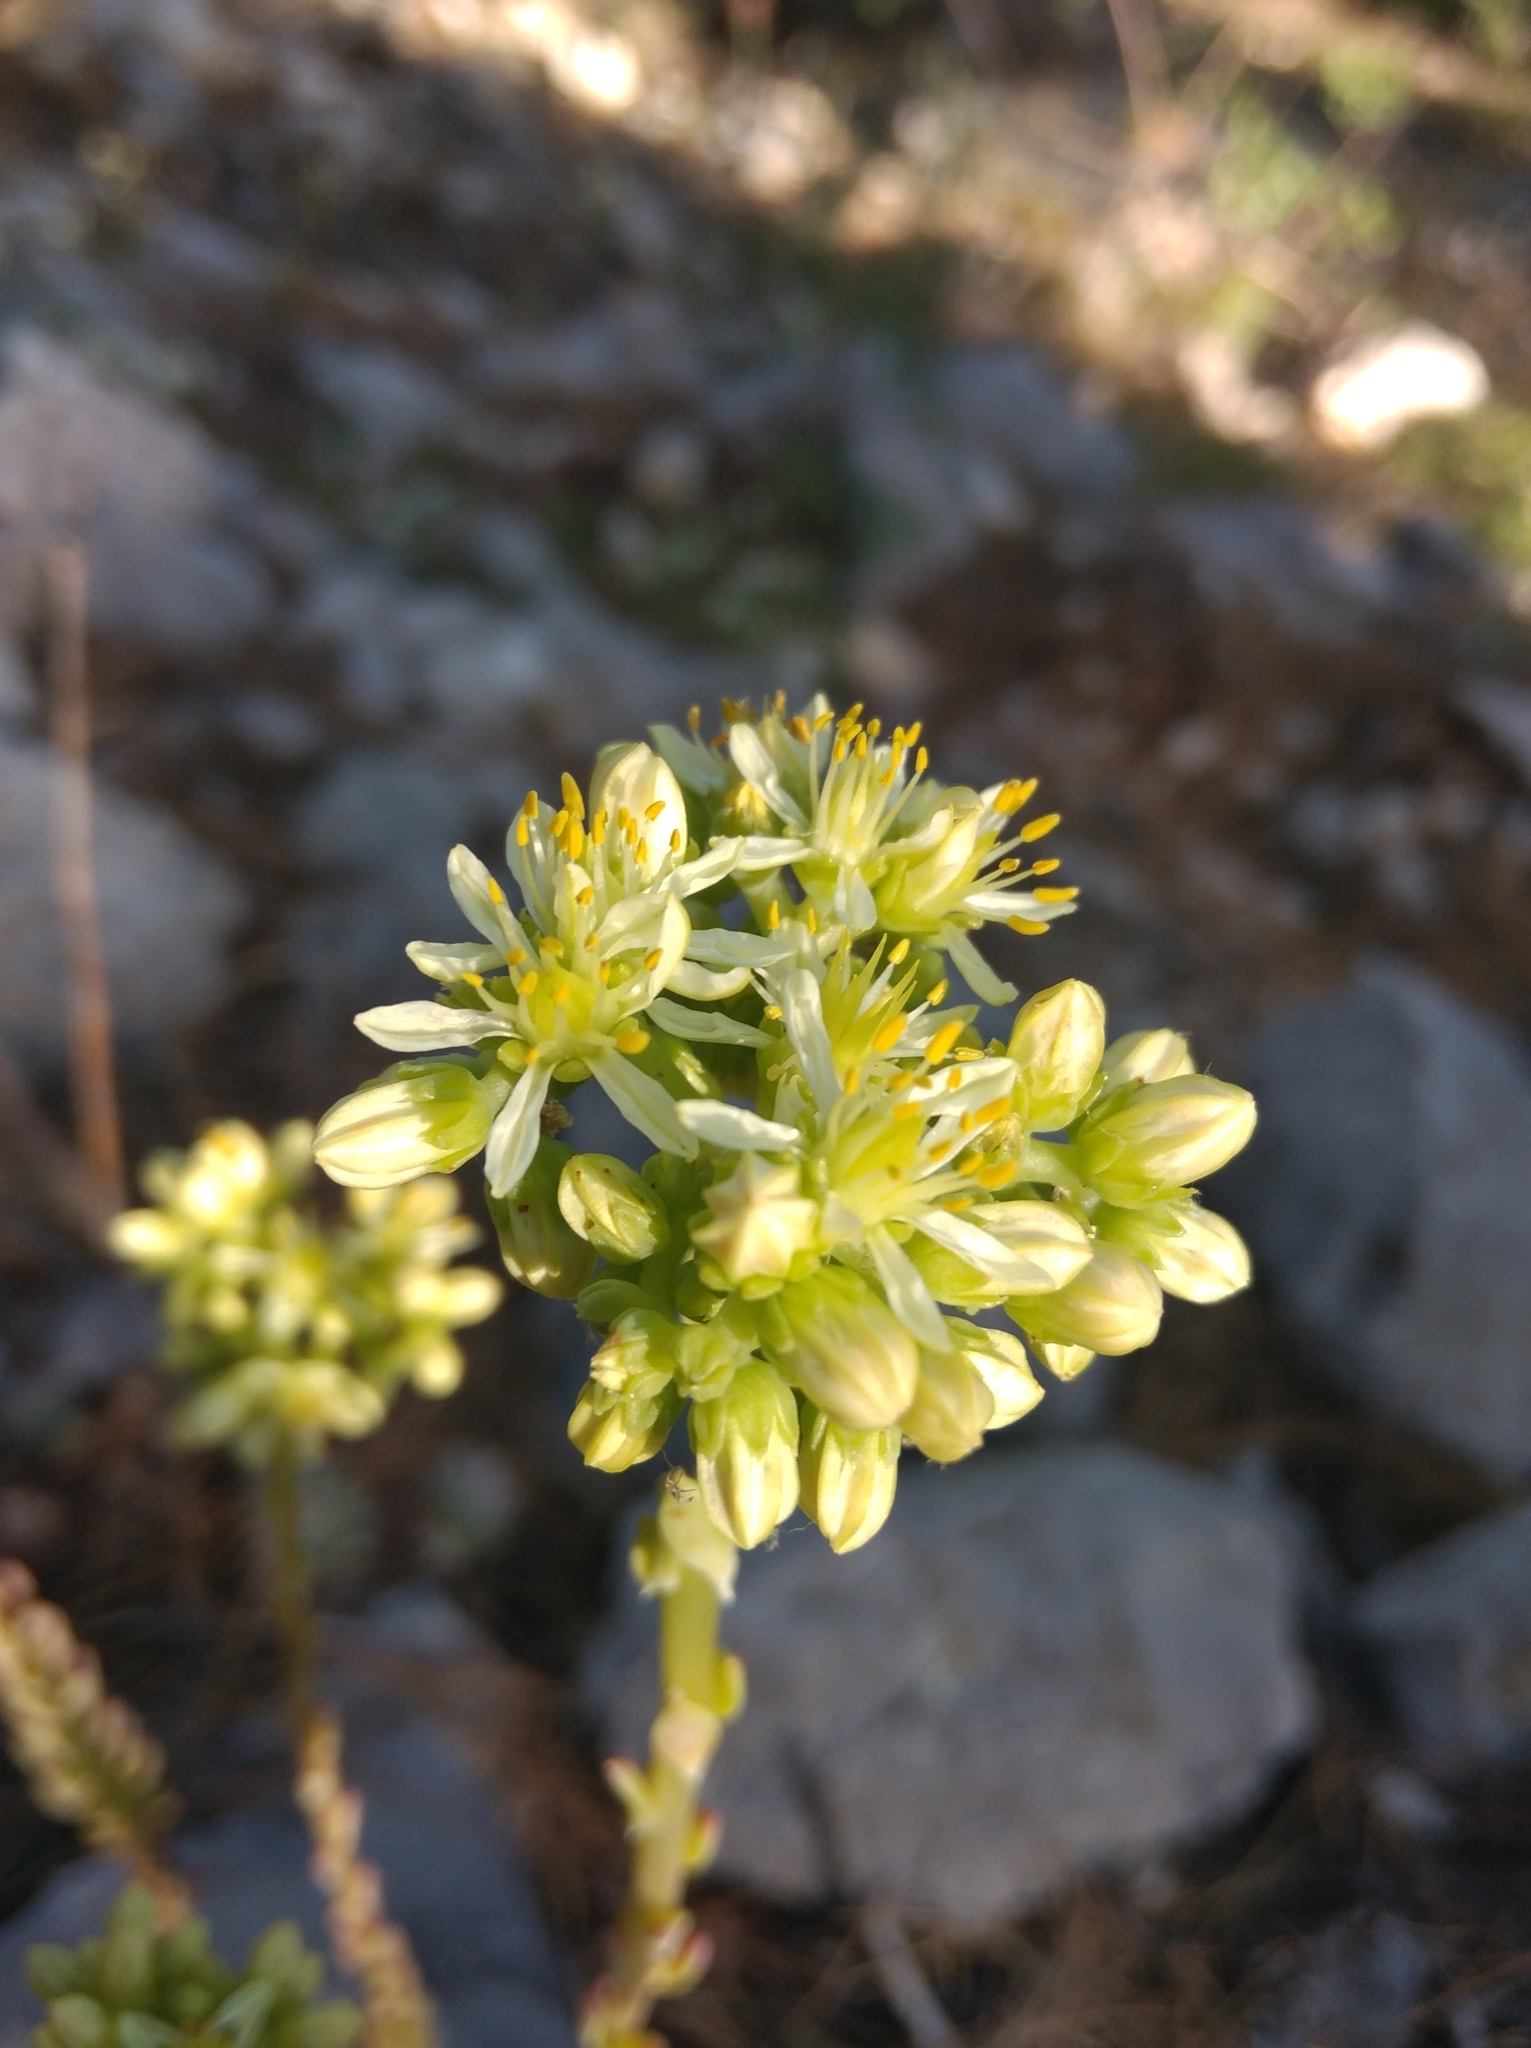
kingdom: Plantae
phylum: Tracheophyta
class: Magnoliopsida
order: Saxifragales
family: Crassulaceae
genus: Petrosedum
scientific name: Petrosedum sediforme
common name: Pale stonecrop
